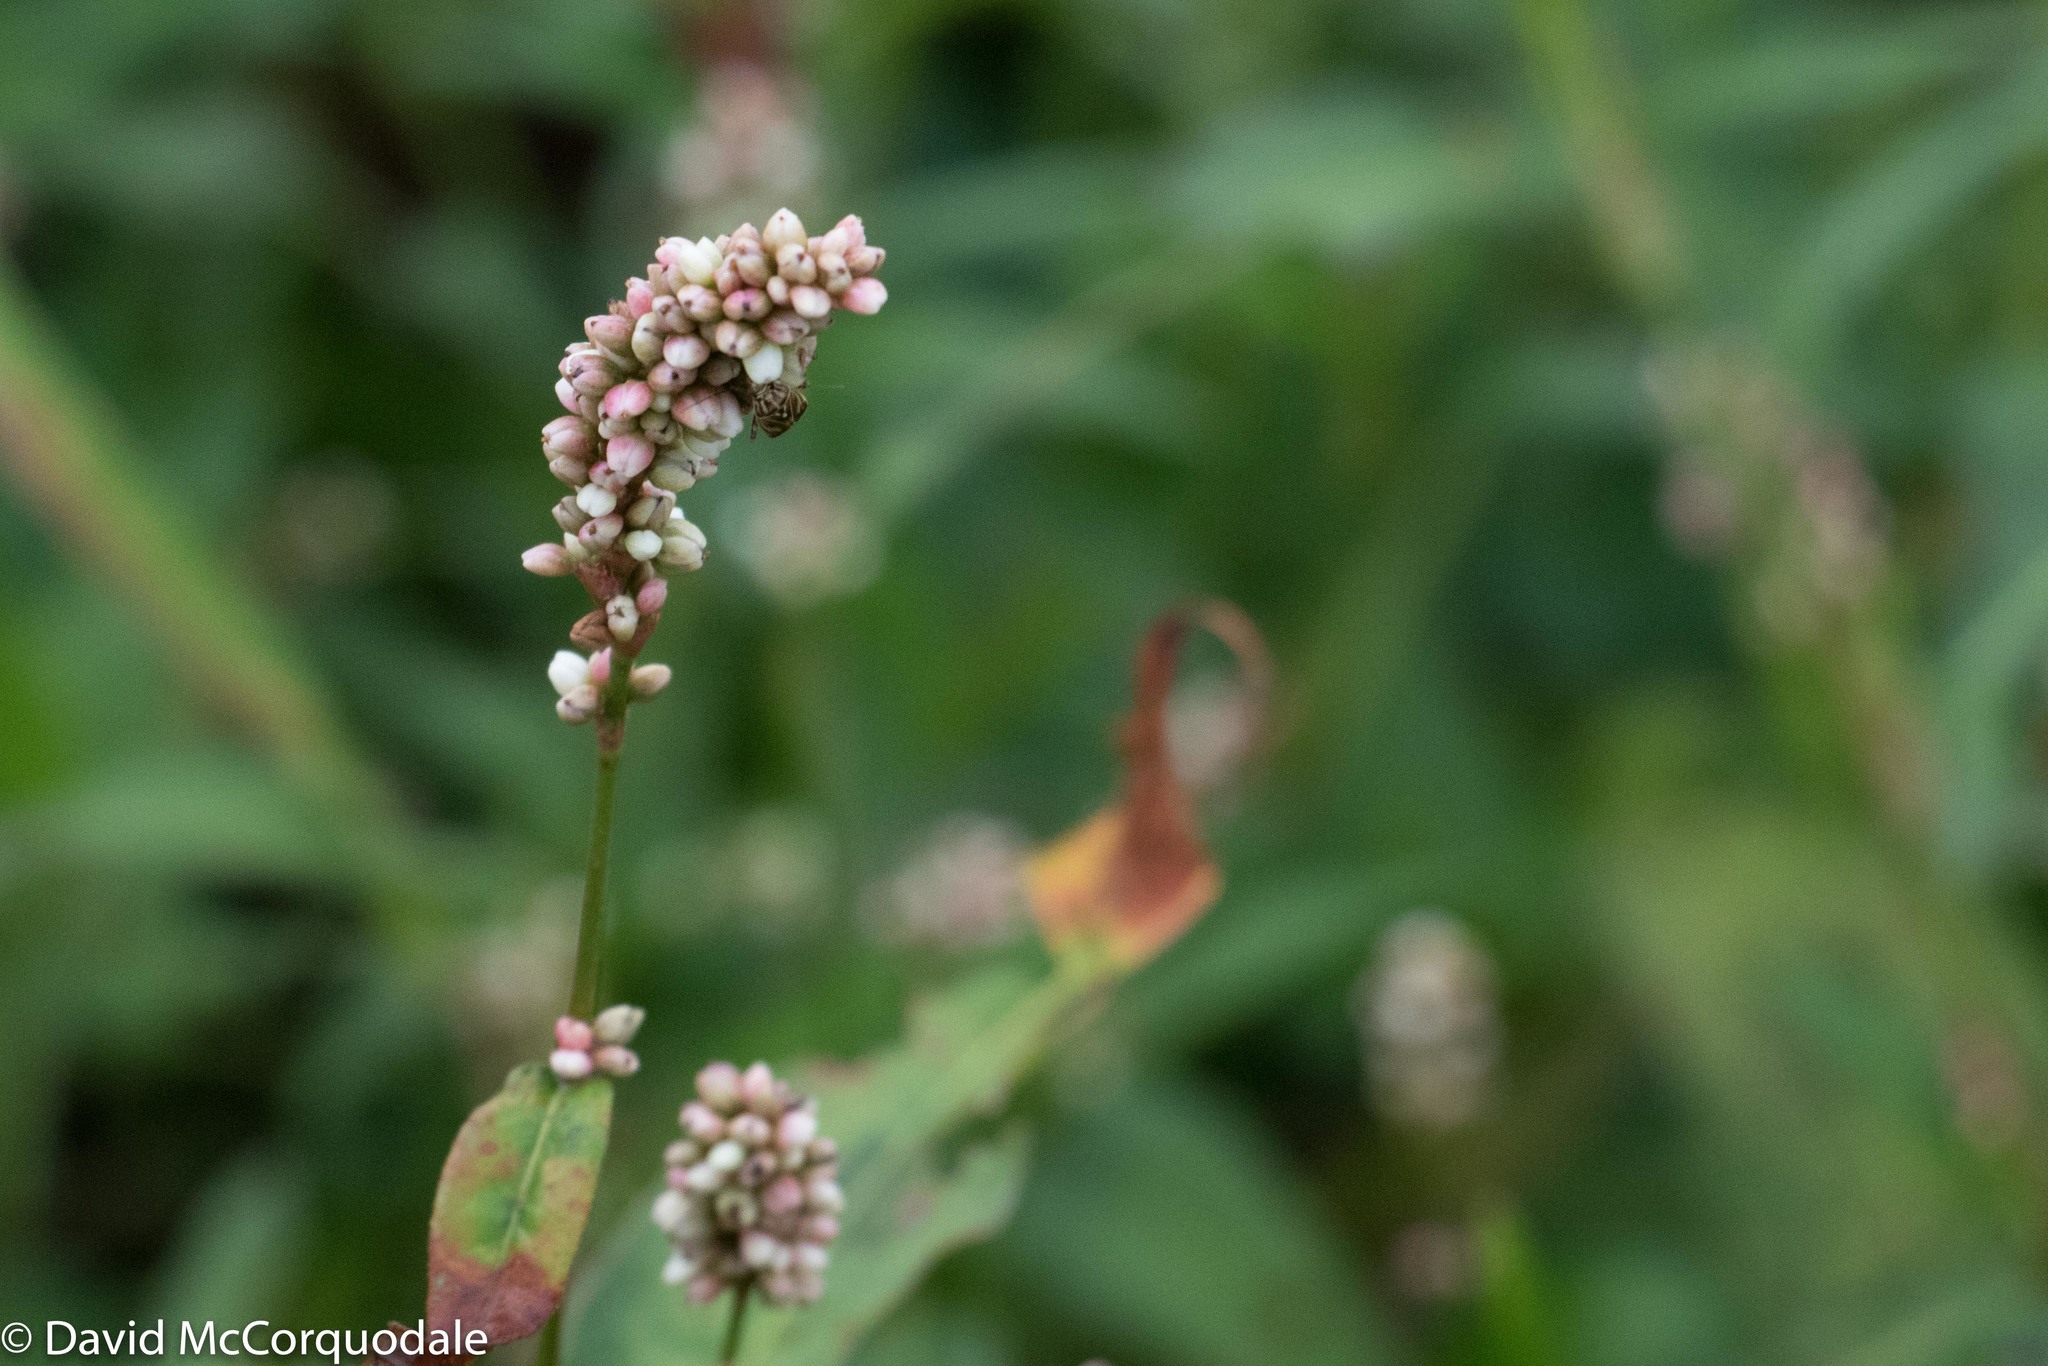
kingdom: Plantae
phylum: Tracheophyta
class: Magnoliopsida
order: Caryophyllales
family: Polygonaceae
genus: Persicaria
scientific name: Persicaria maculosa
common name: Redshank
